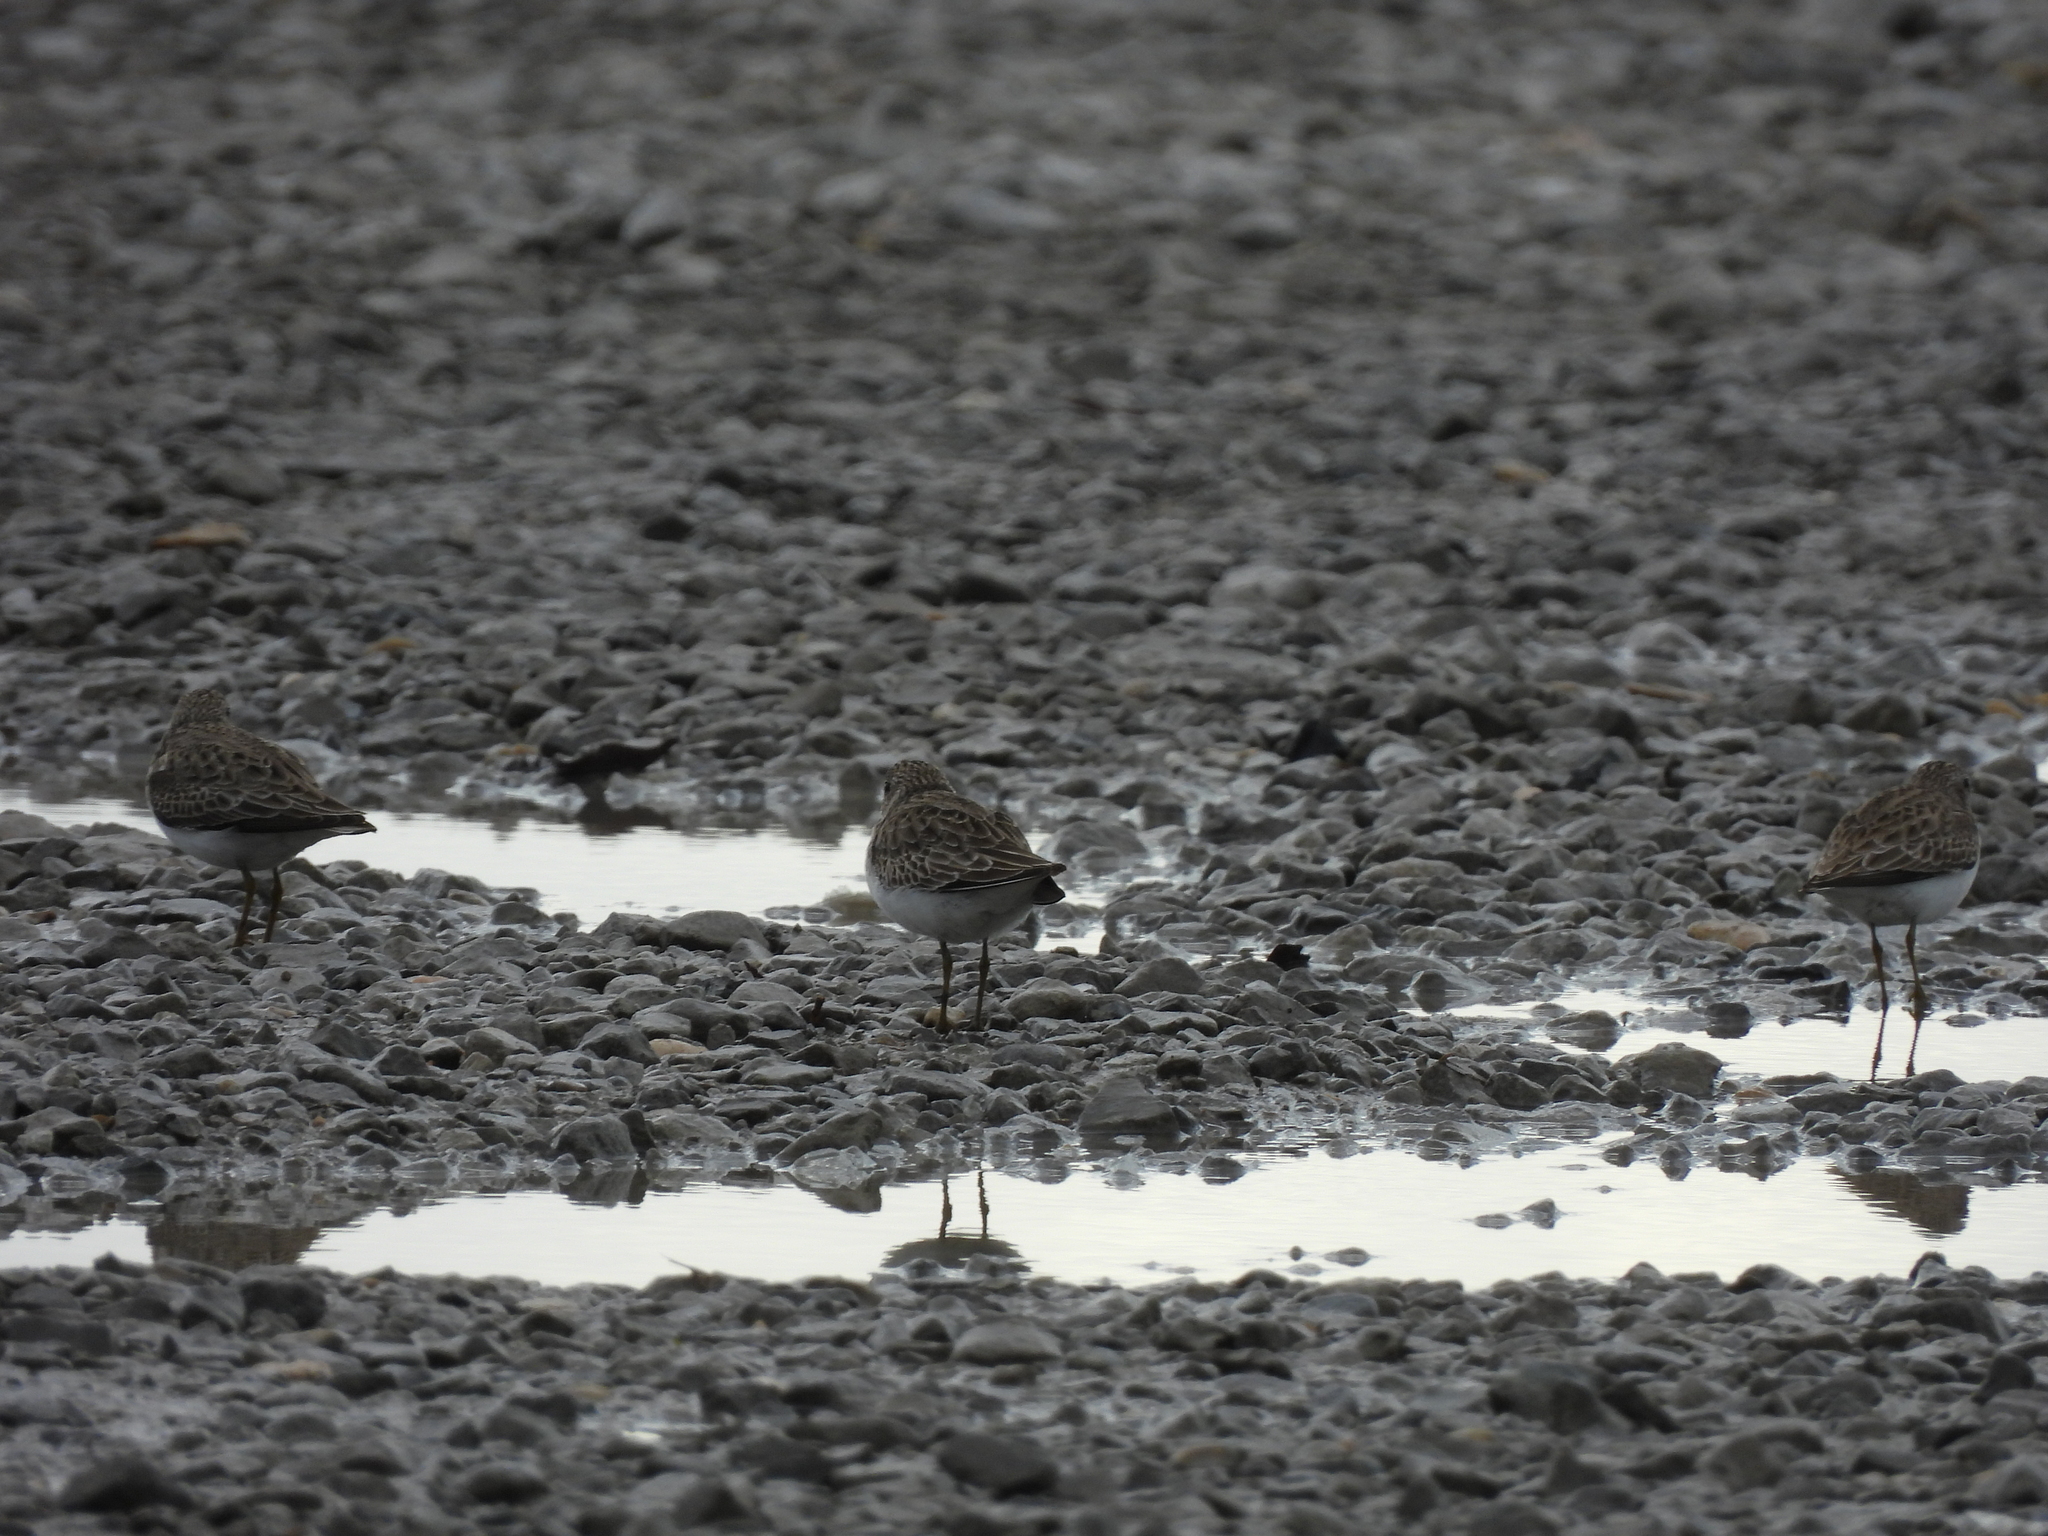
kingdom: Animalia
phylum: Chordata
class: Aves
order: Charadriiformes
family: Scolopacidae
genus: Calidris
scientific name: Calidris minutilla
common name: Least sandpiper
